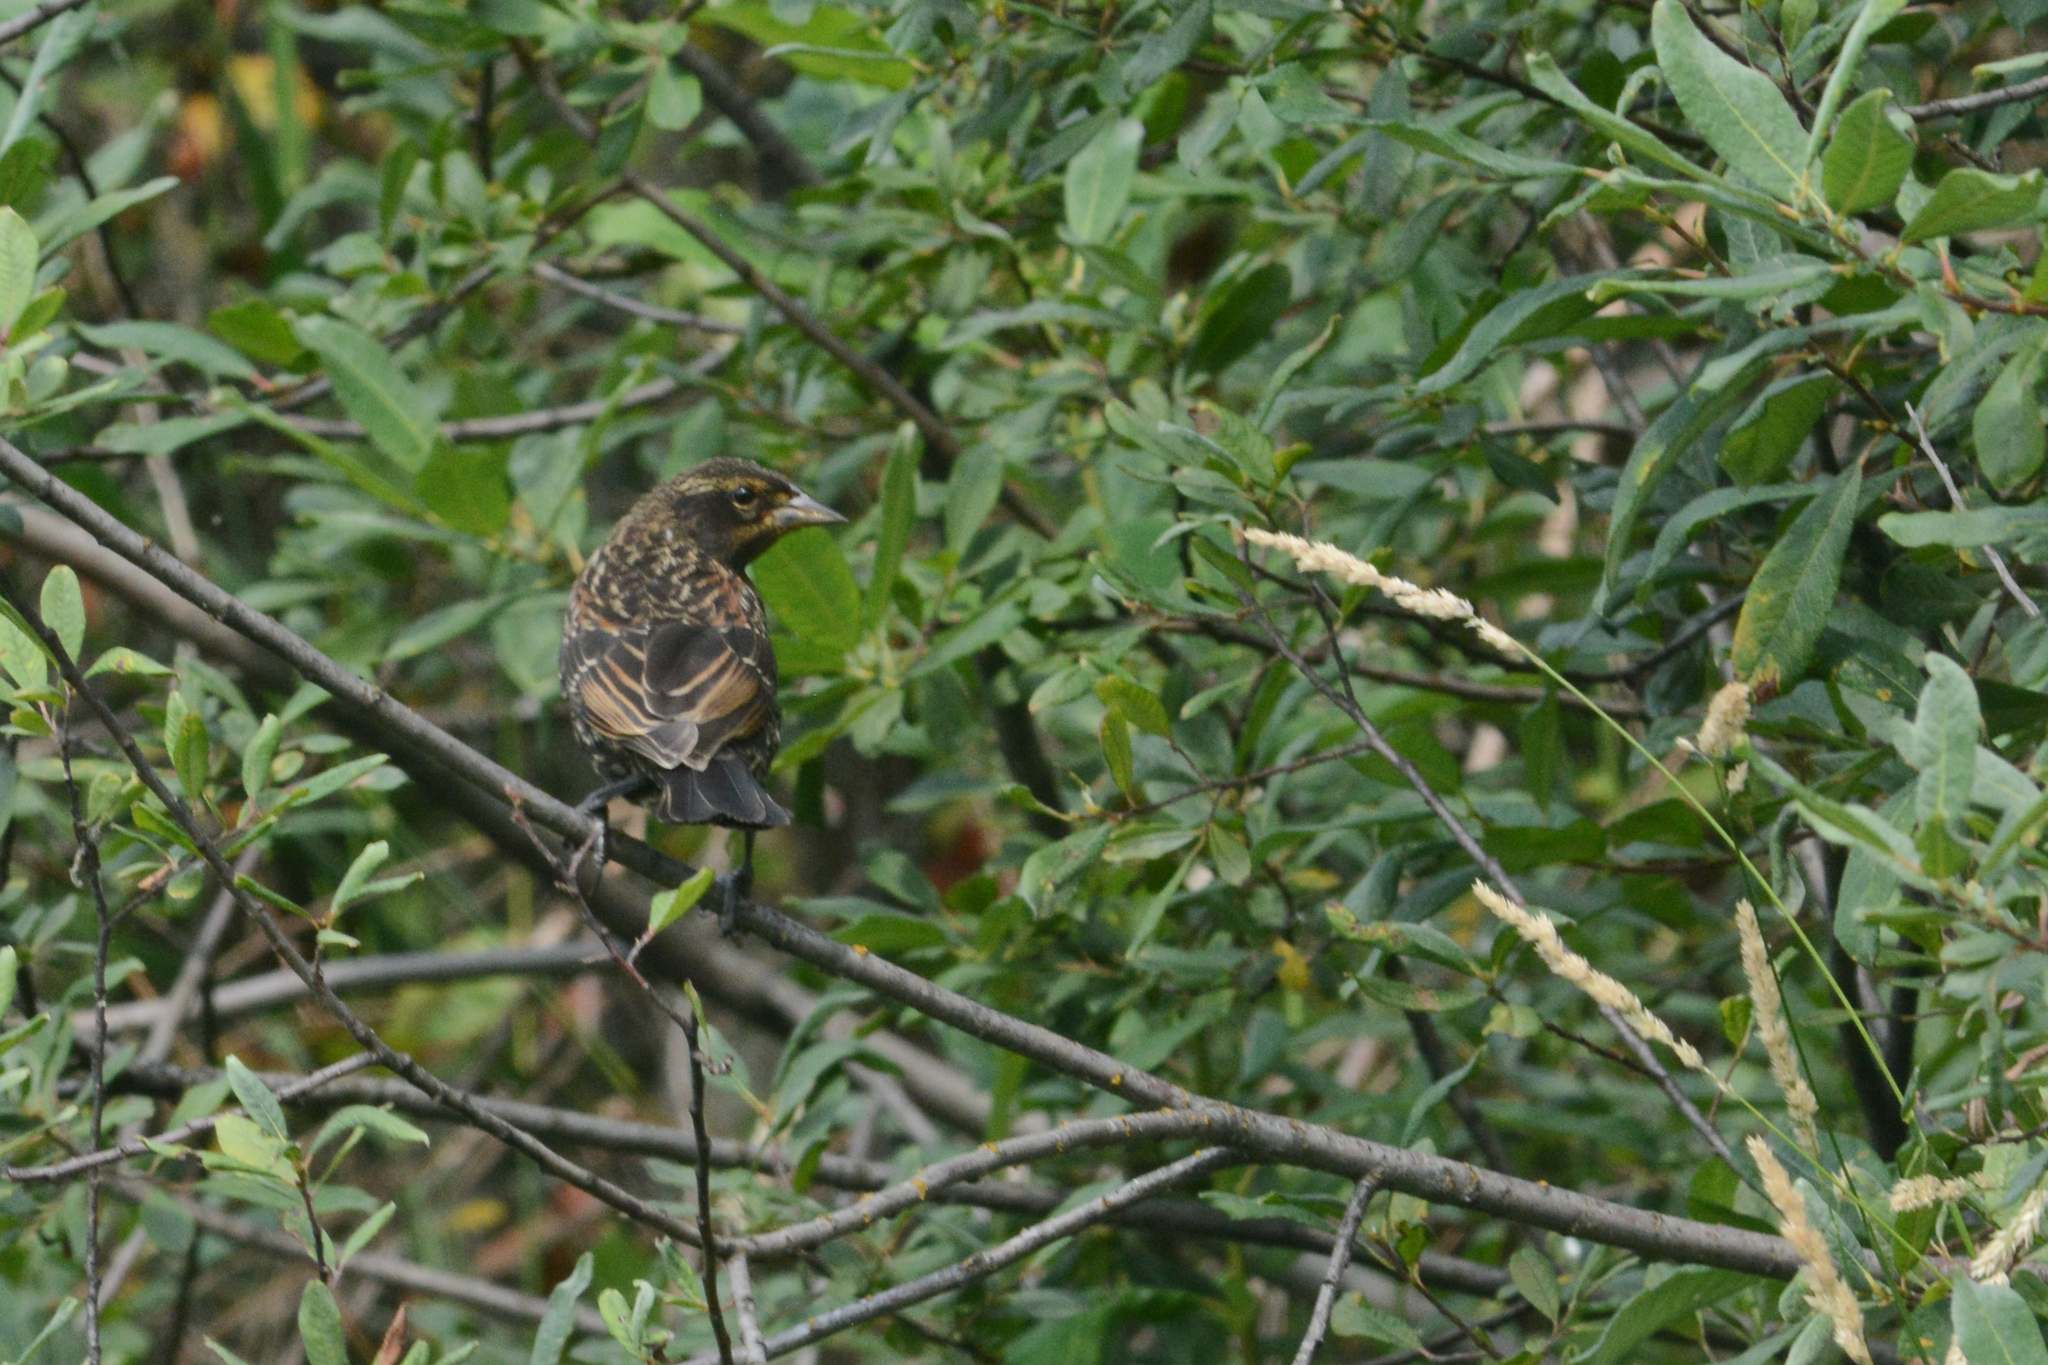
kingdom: Animalia
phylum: Chordata
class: Aves
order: Passeriformes
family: Icteridae
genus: Agelaius
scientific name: Agelaius phoeniceus
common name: Red-winged blackbird
